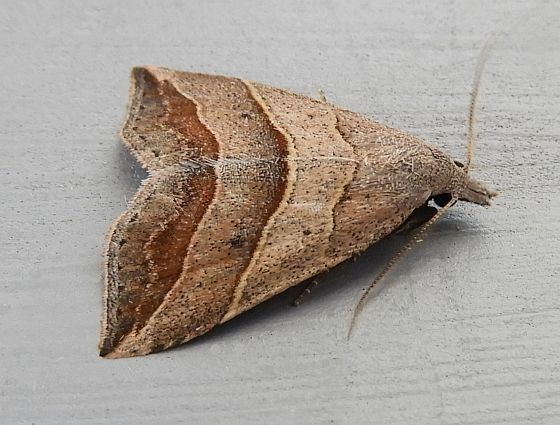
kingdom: Animalia
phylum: Arthropoda
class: Insecta
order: Lepidoptera
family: Erebidae
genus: Colobochyla
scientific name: Colobochyla interpuncta
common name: Yellow-lined owlet
